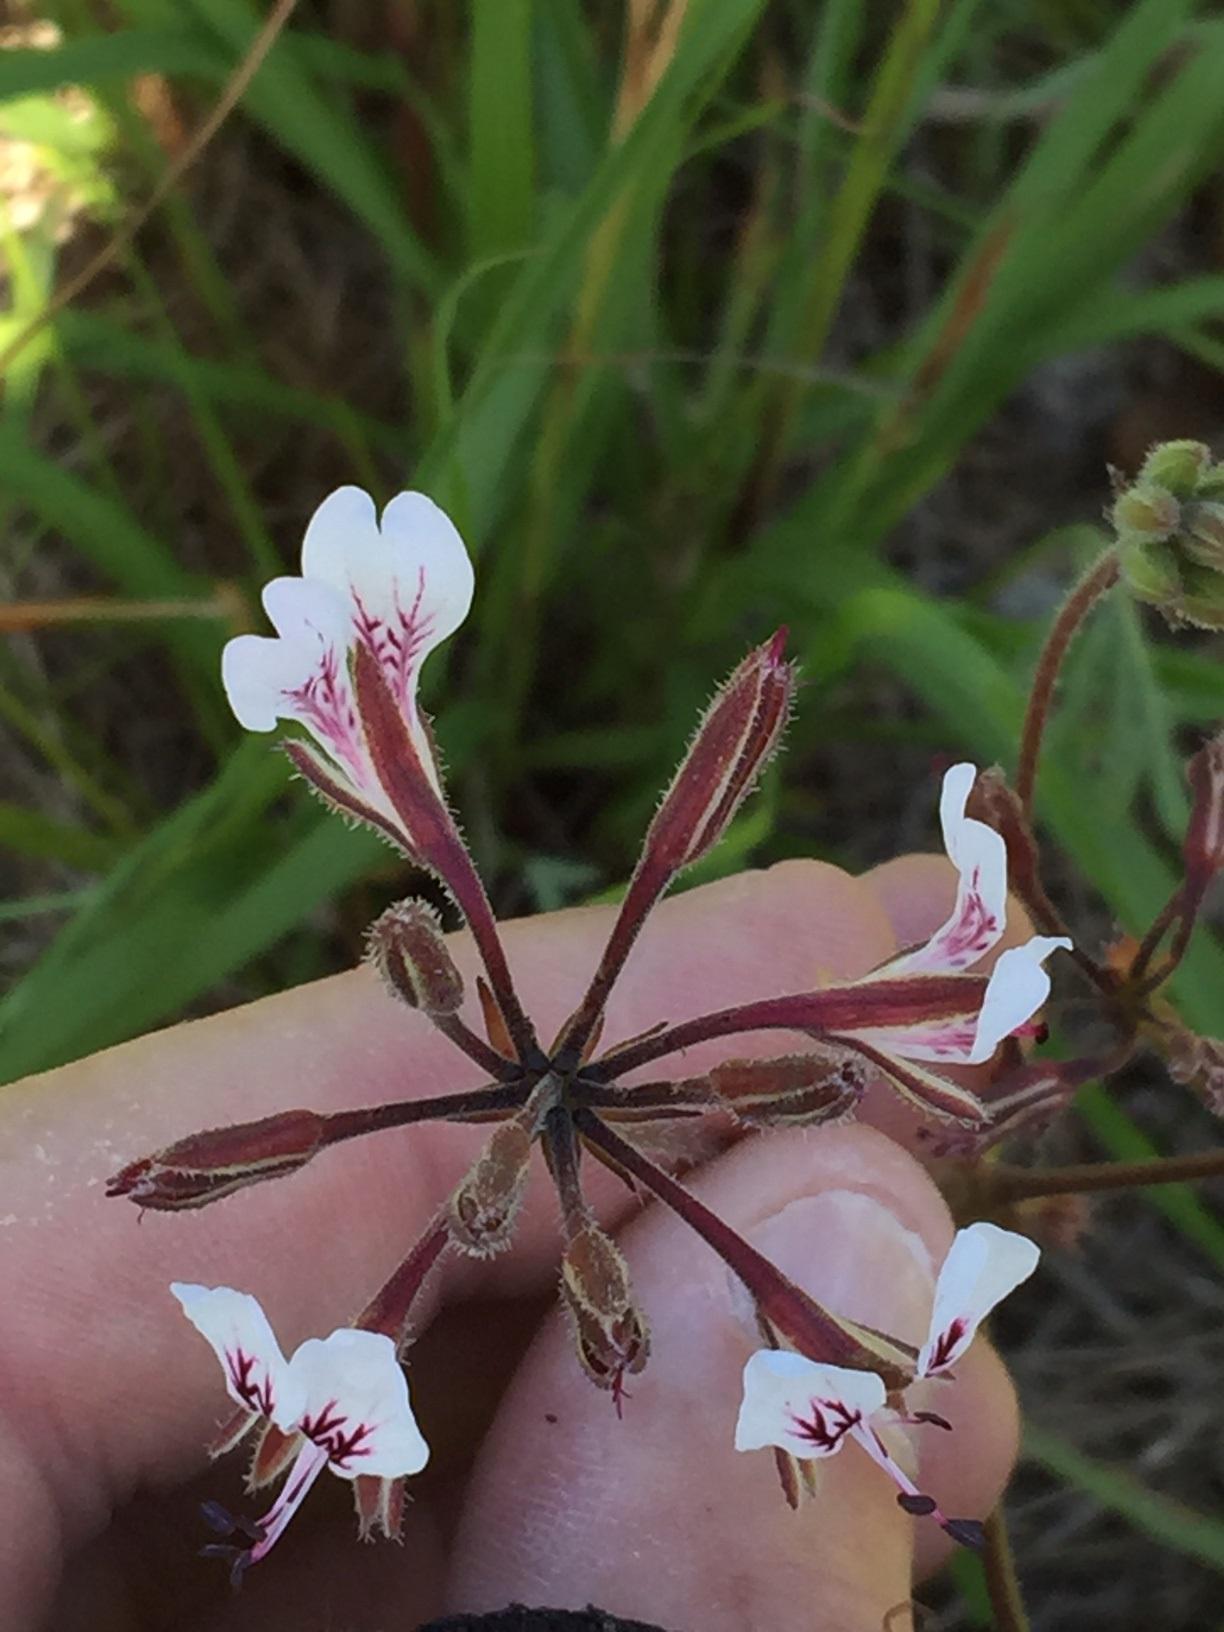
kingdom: Plantae
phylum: Tracheophyta
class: Magnoliopsida
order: Geraniales
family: Geraniaceae
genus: Pelargonium
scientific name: Pelargonium dipetalum
